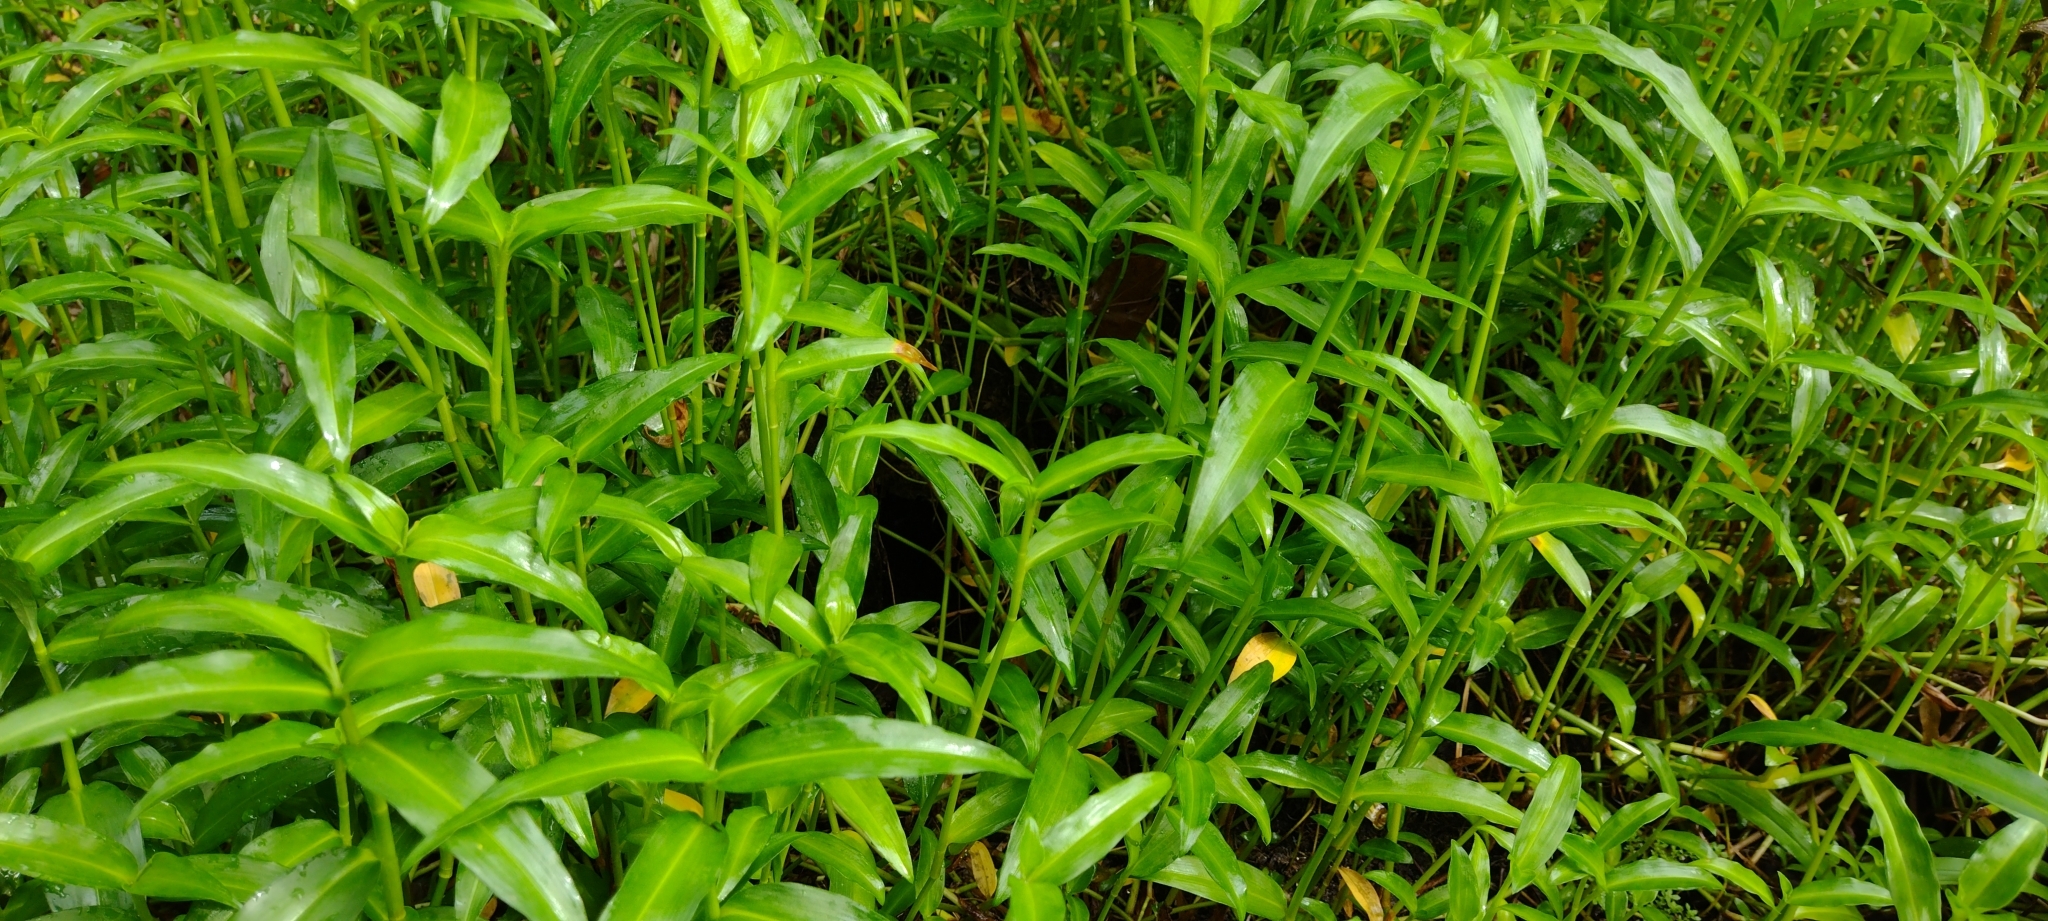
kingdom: Plantae
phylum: Tracheophyta
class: Liliopsida
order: Commelinales
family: Commelinaceae
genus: Commelina
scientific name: Commelina diffusa
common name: Climbing dayflower
